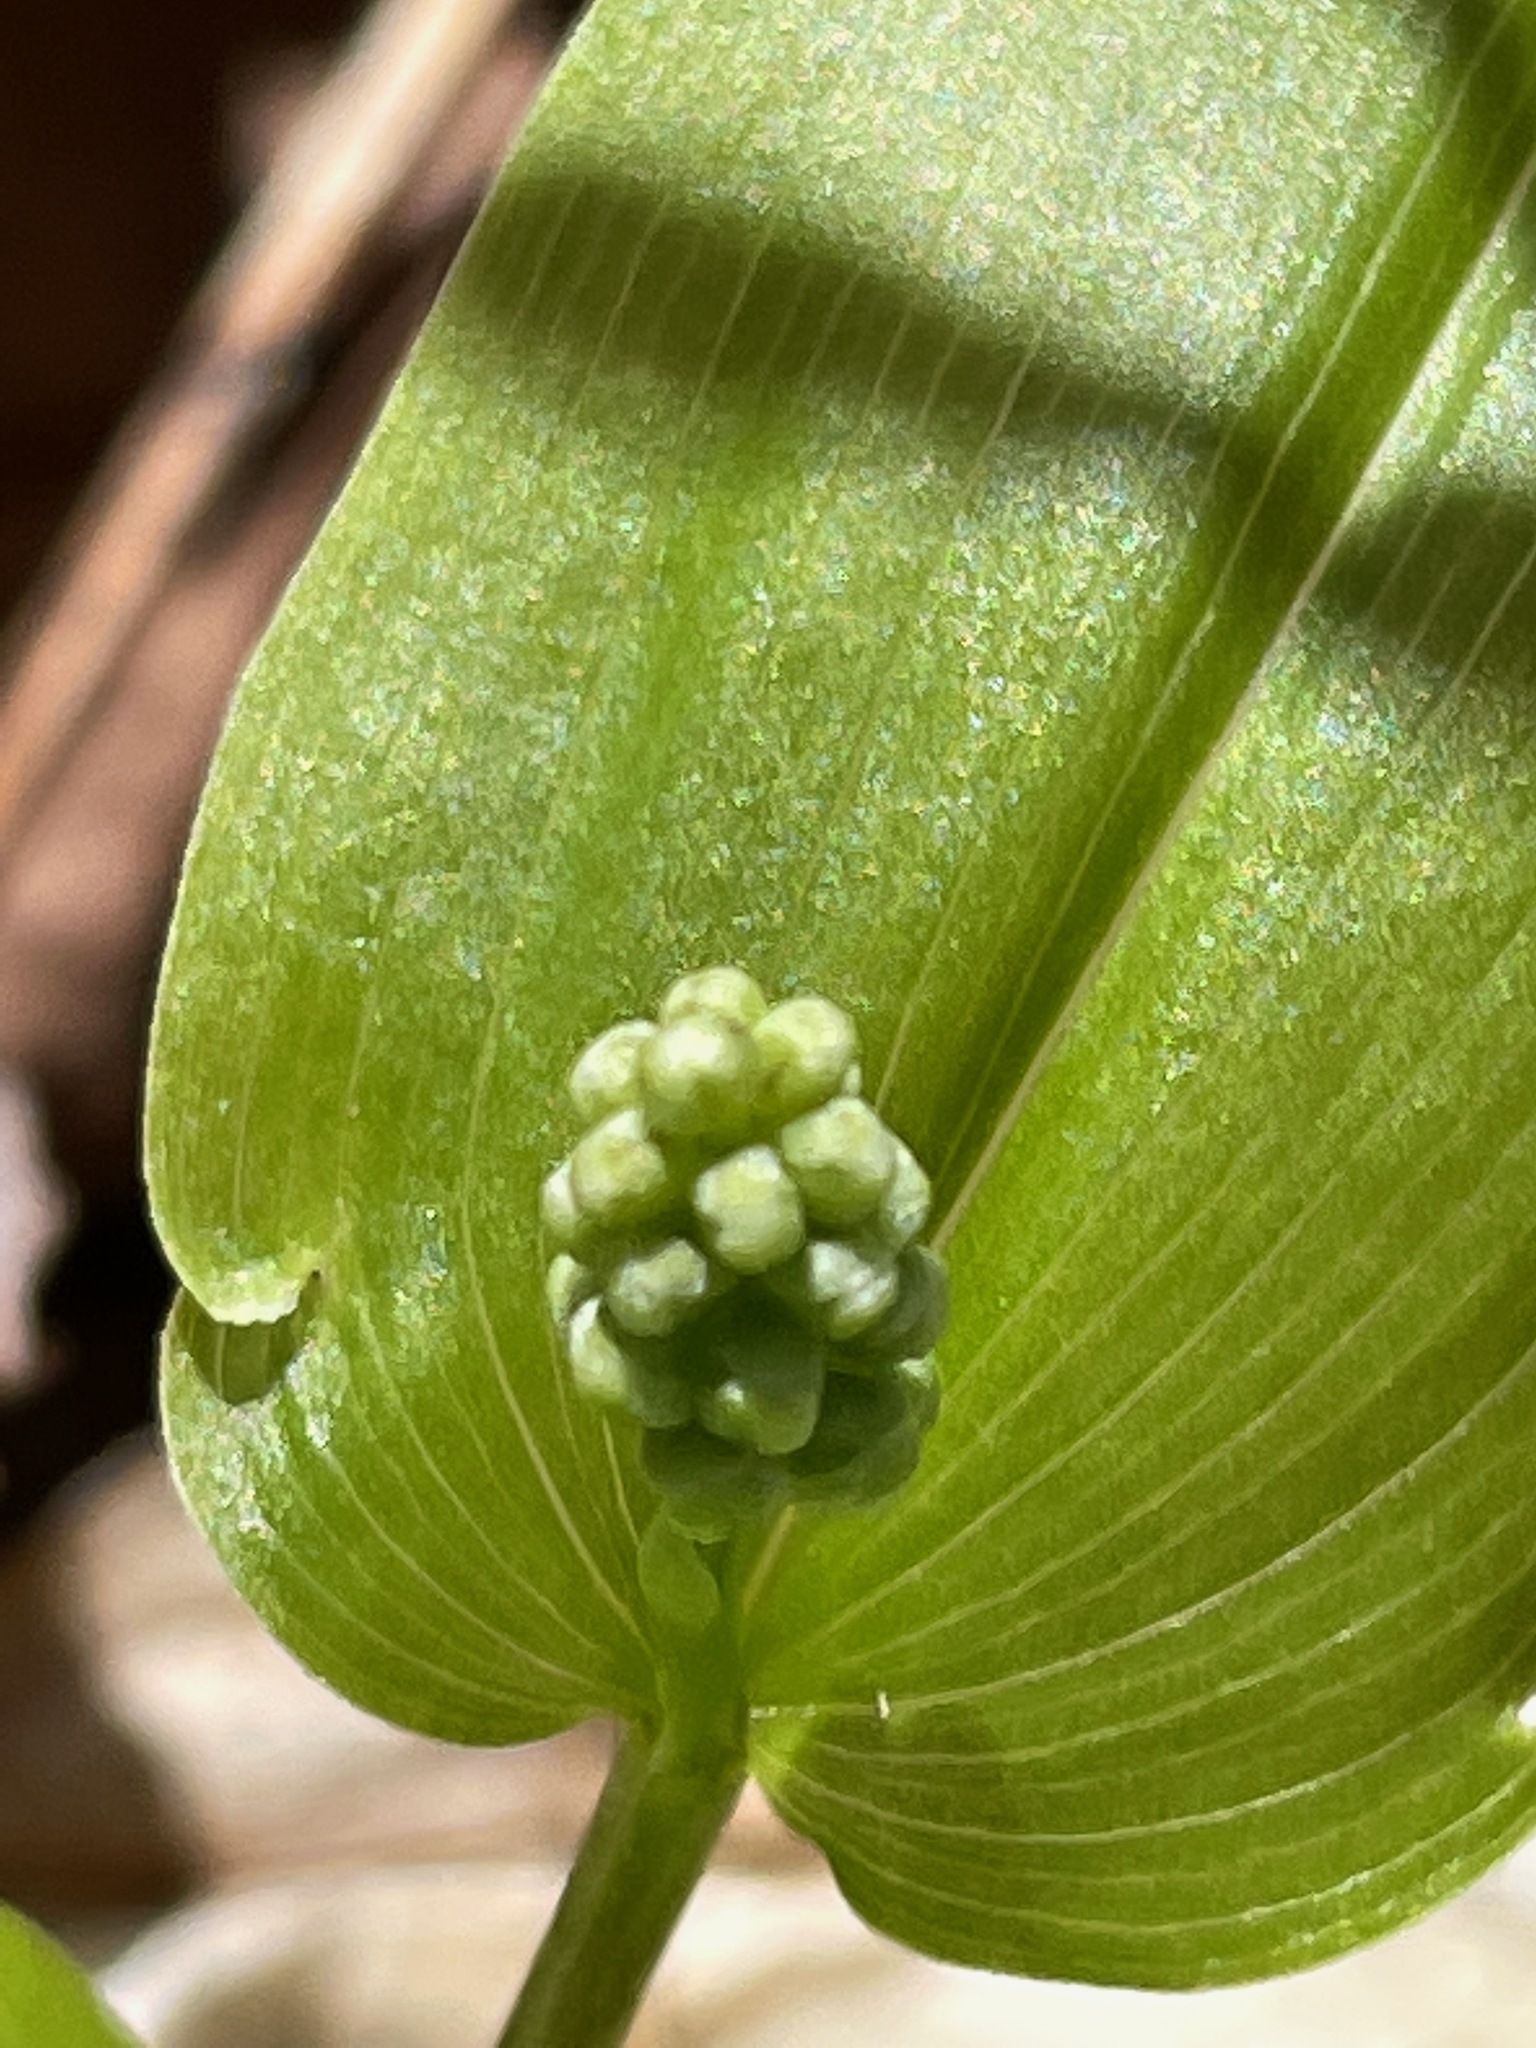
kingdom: Plantae
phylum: Tracheophyta
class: Liliopsida
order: Asparagales
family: Asparagaceae
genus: Maianthemum
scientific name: Maianthemum canadense
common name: False lily-of-the-valley
